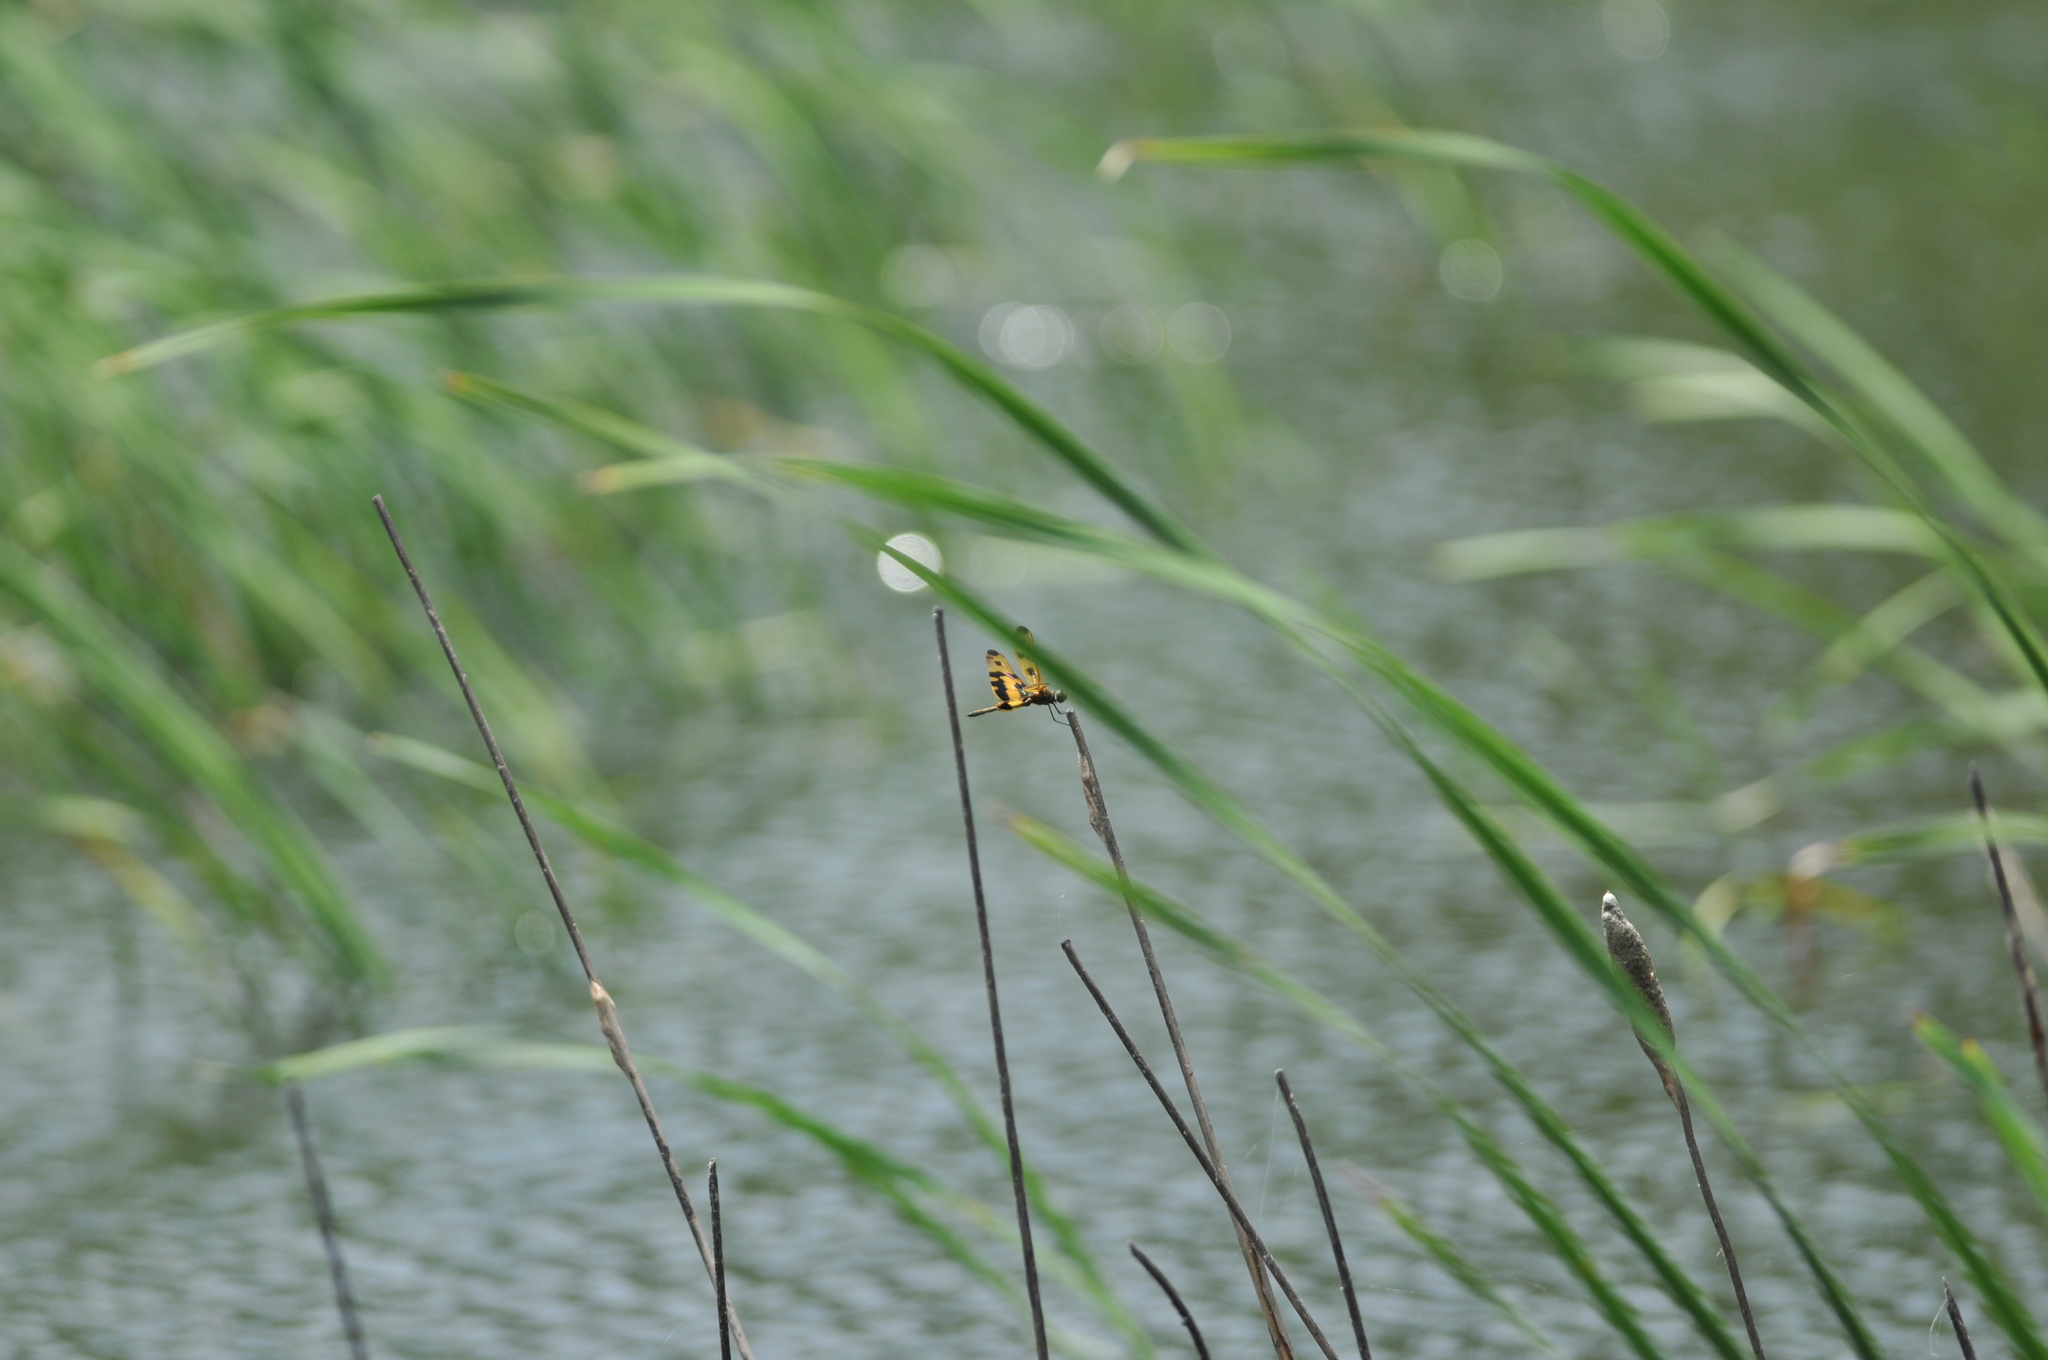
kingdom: Animalia
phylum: Arthropoda
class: Insecta
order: Odonata
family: Libellulidae
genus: Rhyothemis
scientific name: Rhyothemis variegata
